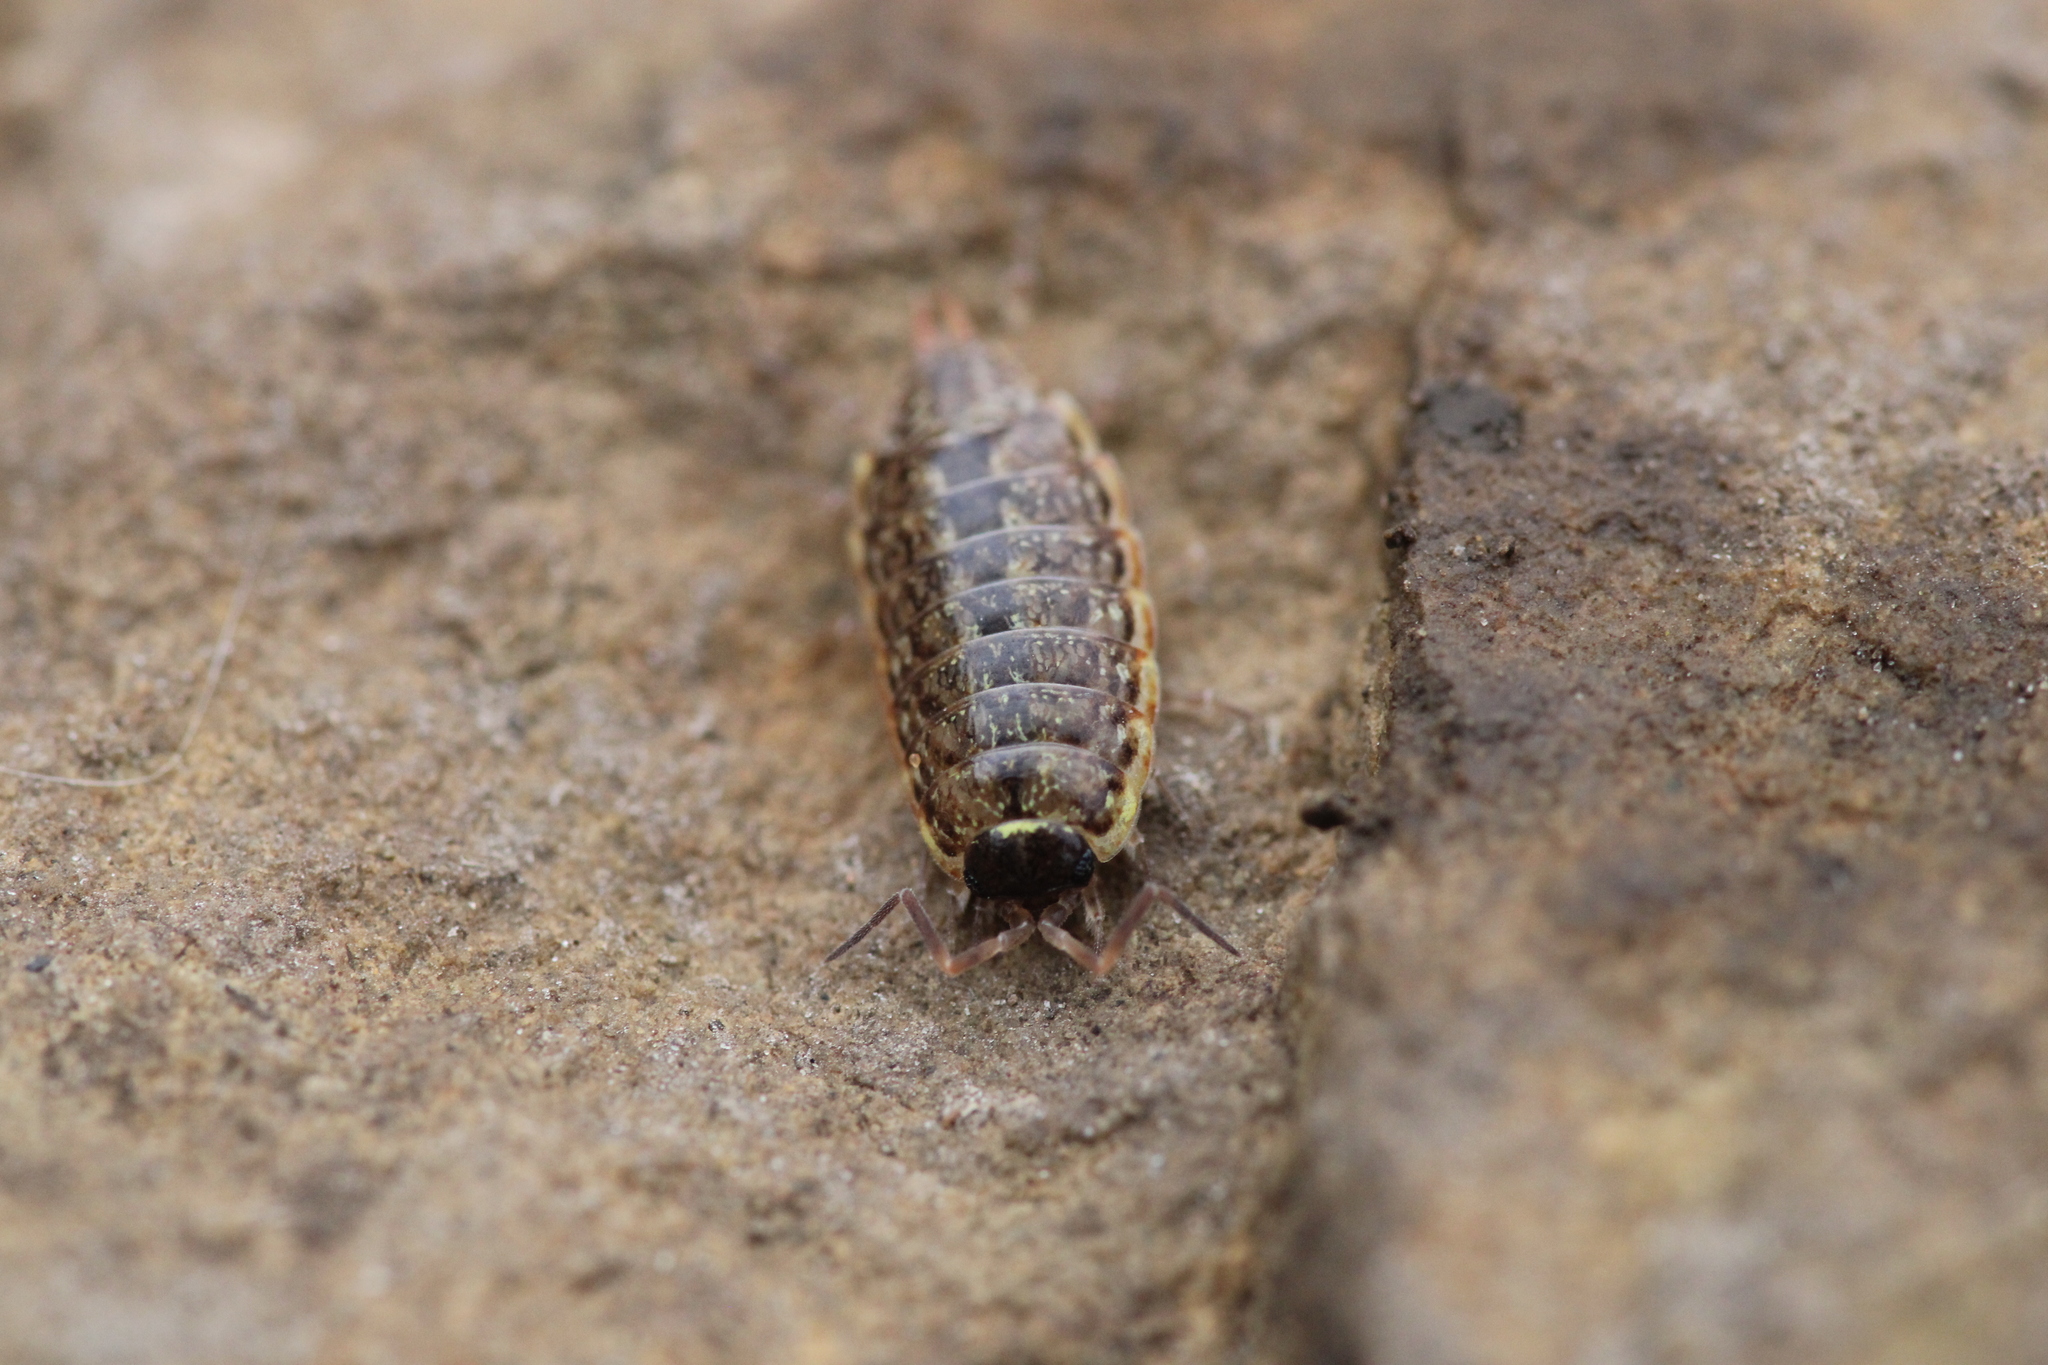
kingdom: Animalia
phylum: Arthropoda
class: Malacostraca
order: Isopoda
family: Philosciidae
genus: Philoscia
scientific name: Philoscia muscorum
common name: Common striped woodlouse
